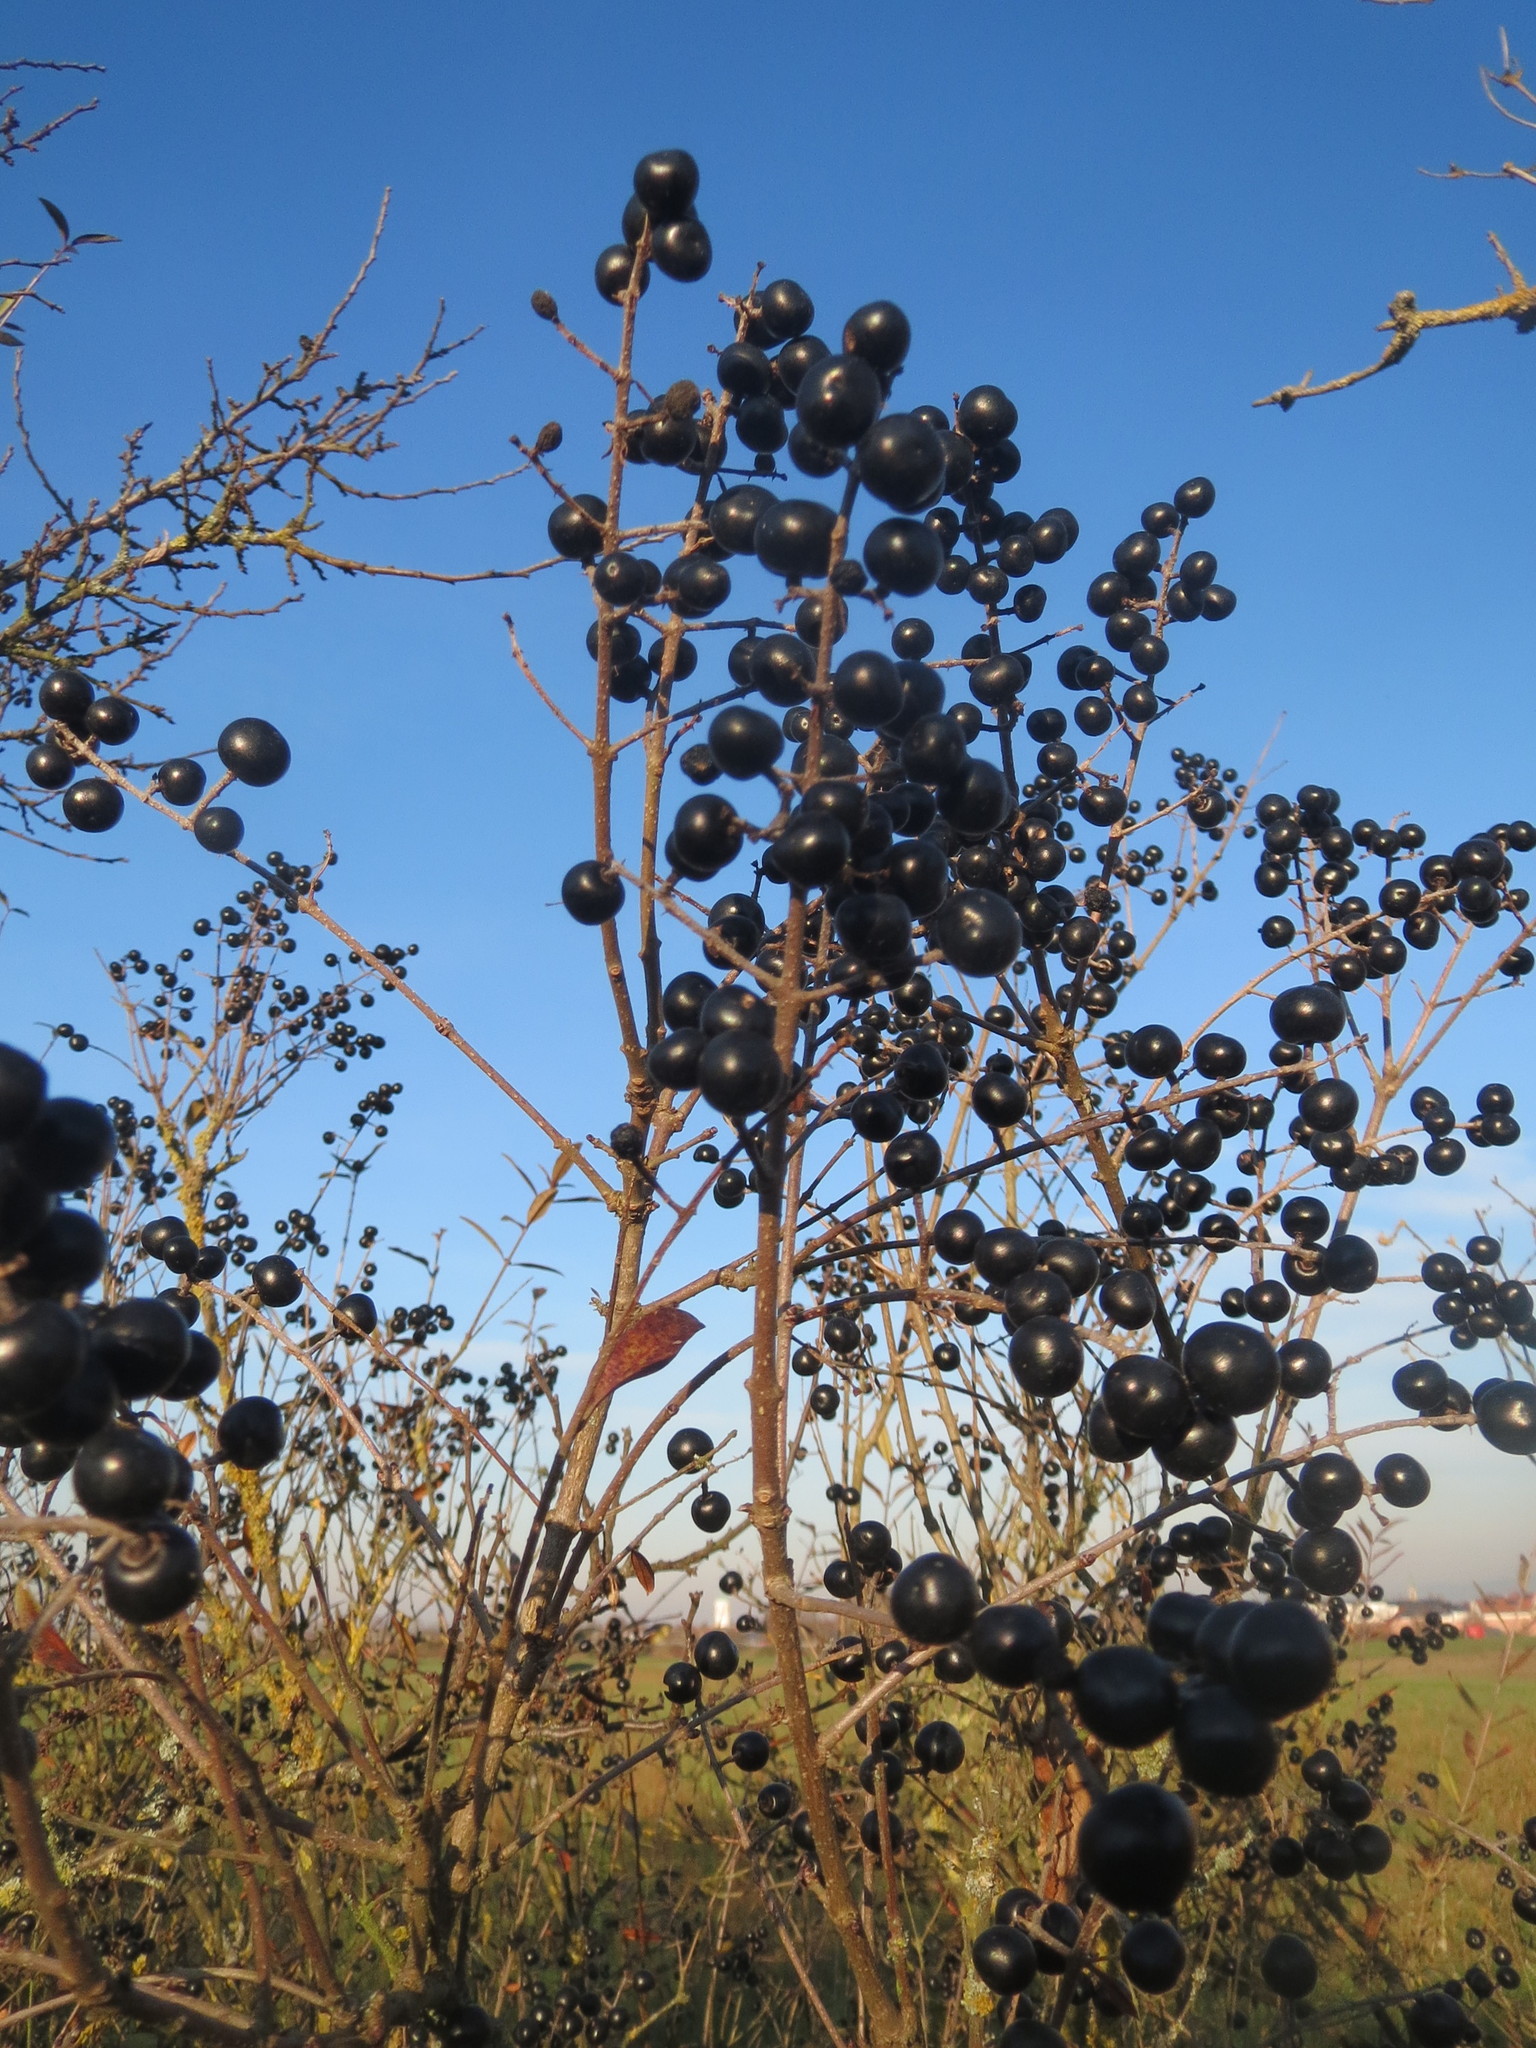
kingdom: Plantae
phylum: Tracheophyta
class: Magnoliopsida
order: Lamiales
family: Oleaceae
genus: Ligustrum
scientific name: Ligustrum vulgare
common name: Wild privet
